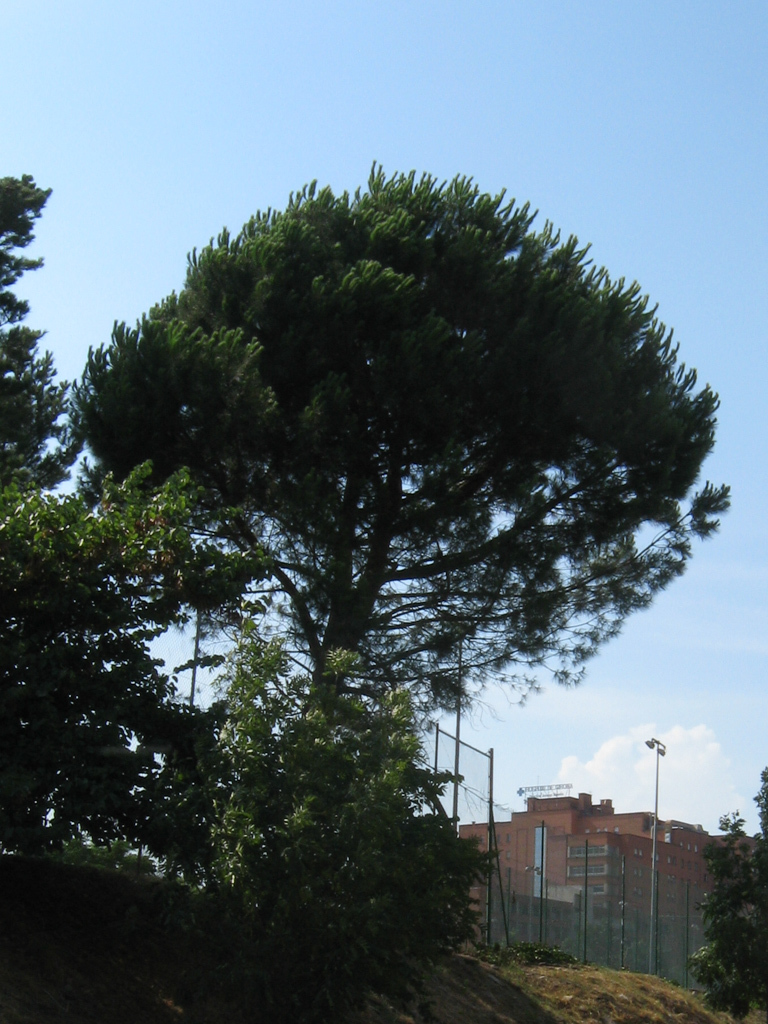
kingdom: Plantae
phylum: Tracheophyta
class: Pinopsida
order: Pinales
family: Pinaceae
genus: Pinus
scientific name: Pinus pinea
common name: Italian stone pine
